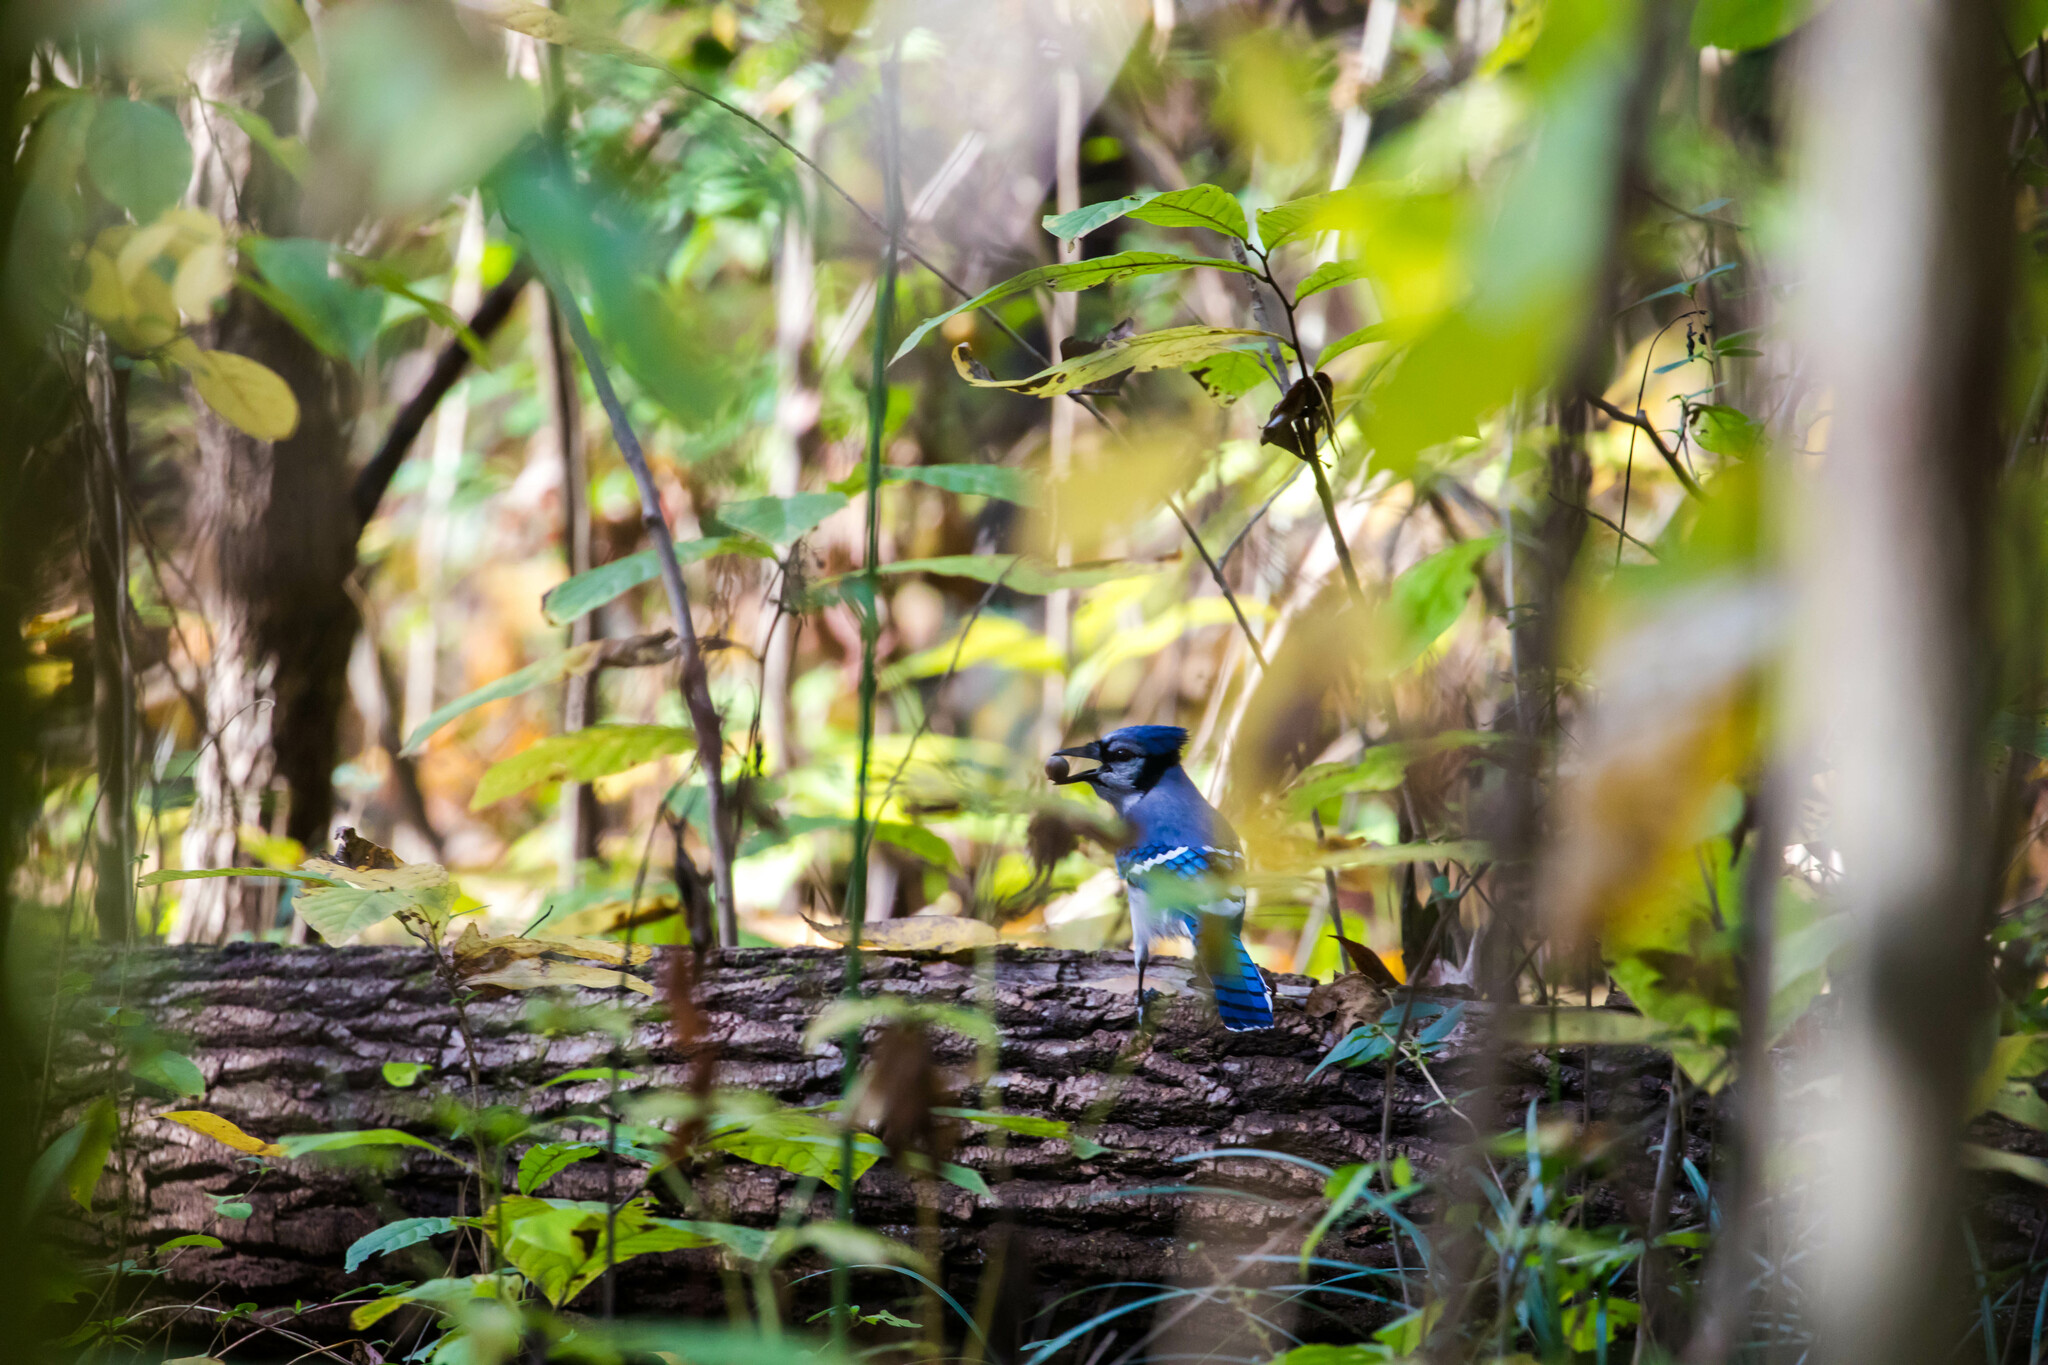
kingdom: Animalia
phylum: Chordata
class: Aves
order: Passeriformes
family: Corvidae
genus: Cyanocitta
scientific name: Cyanocitta cristata
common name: Blue jay
